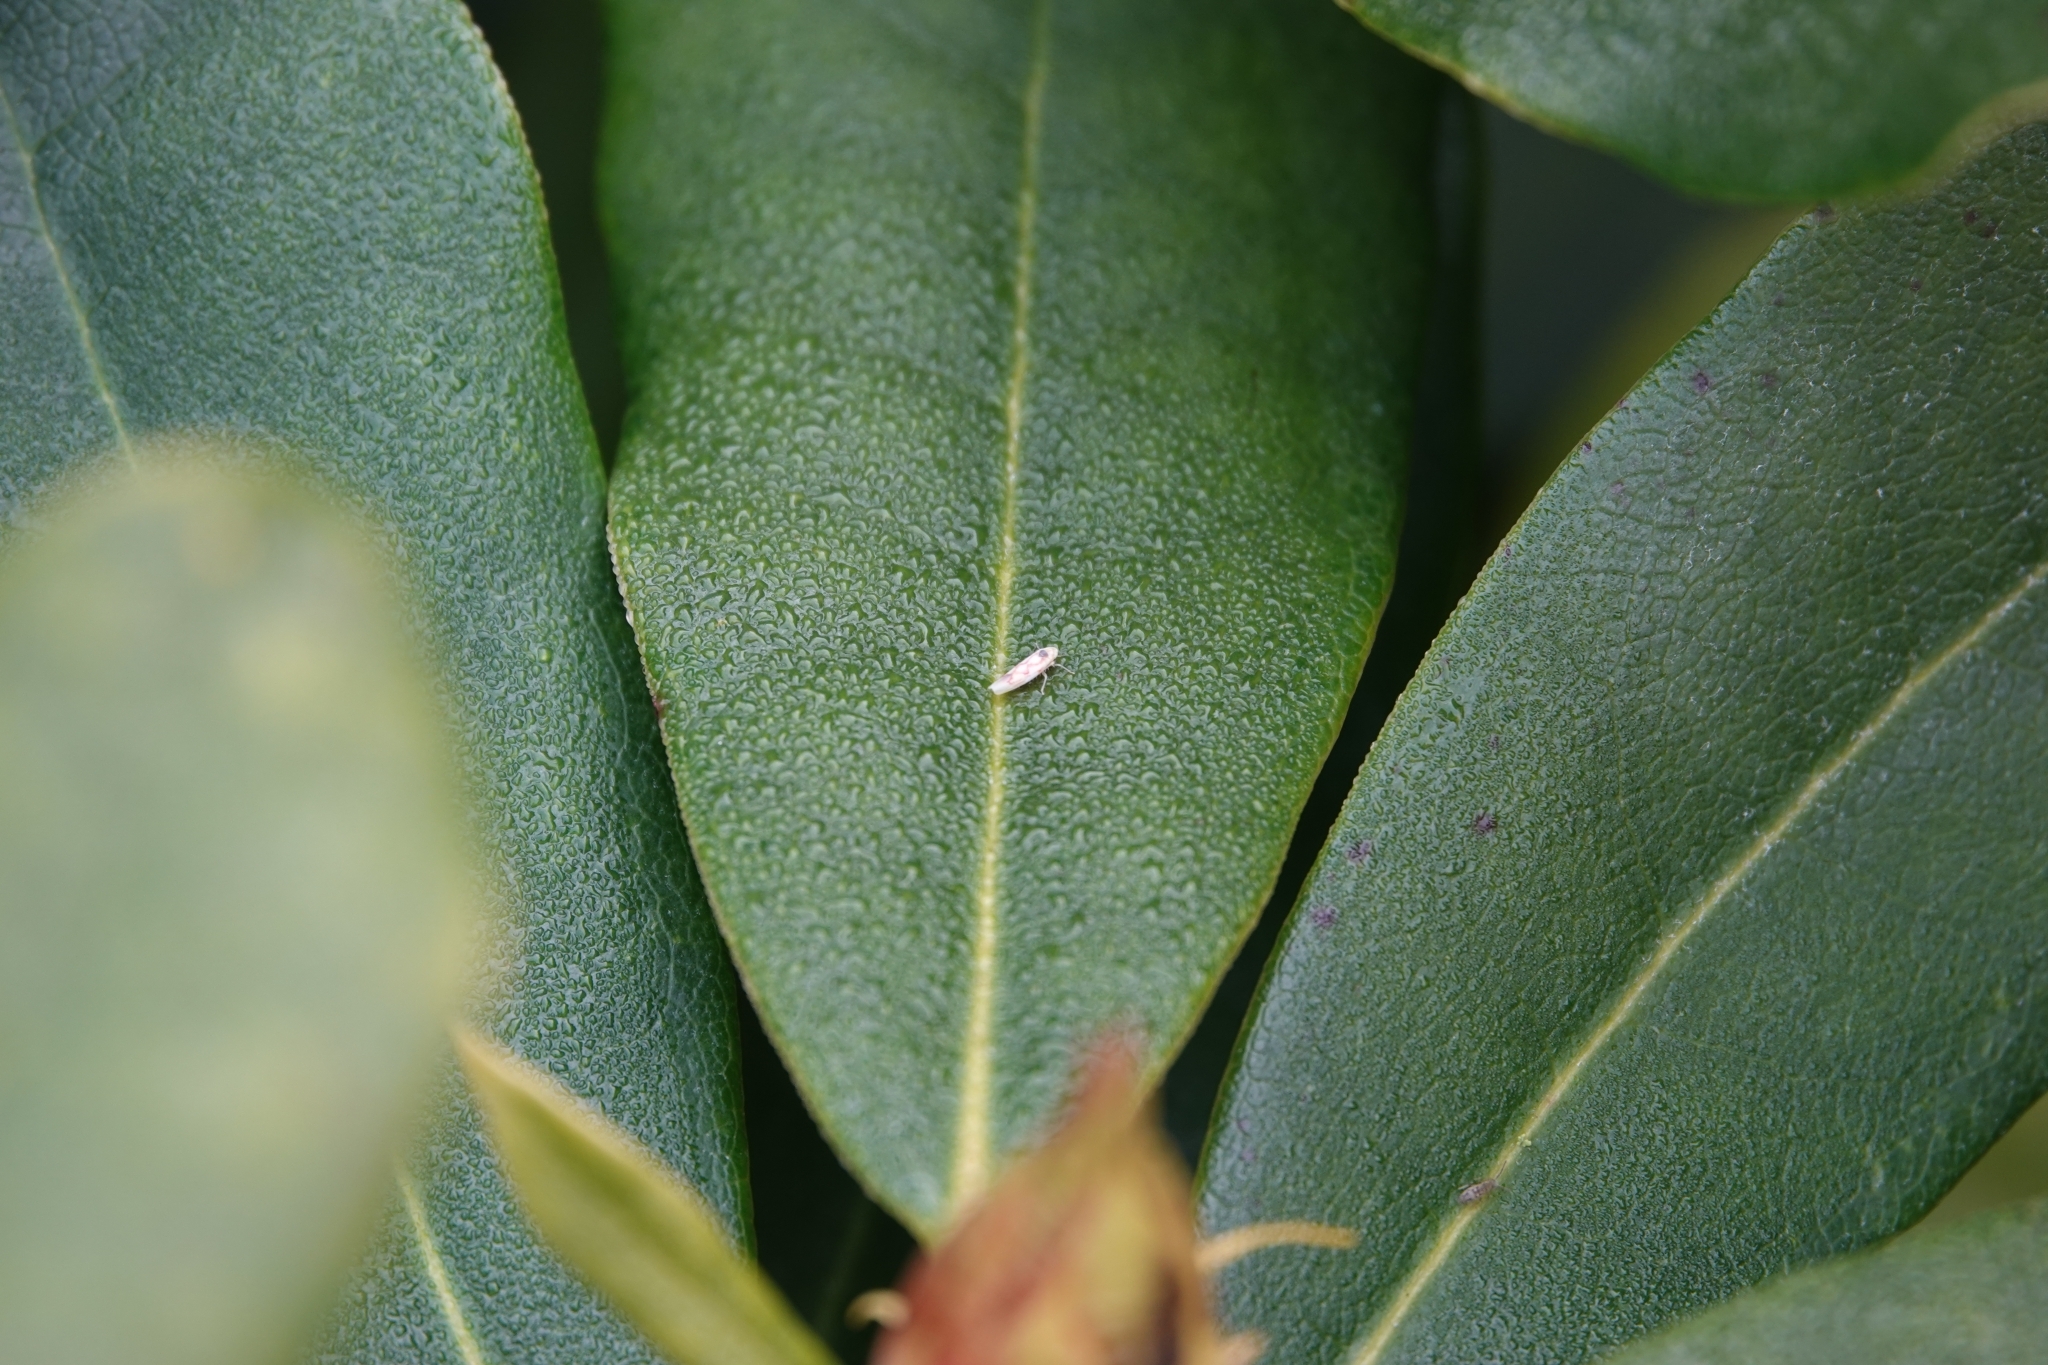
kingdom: Animalia
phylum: Arthropoda
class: Insecta
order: Hemiptera
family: Cicadellidae
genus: Zygina
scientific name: Zygina flammigera
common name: Leafhopper
